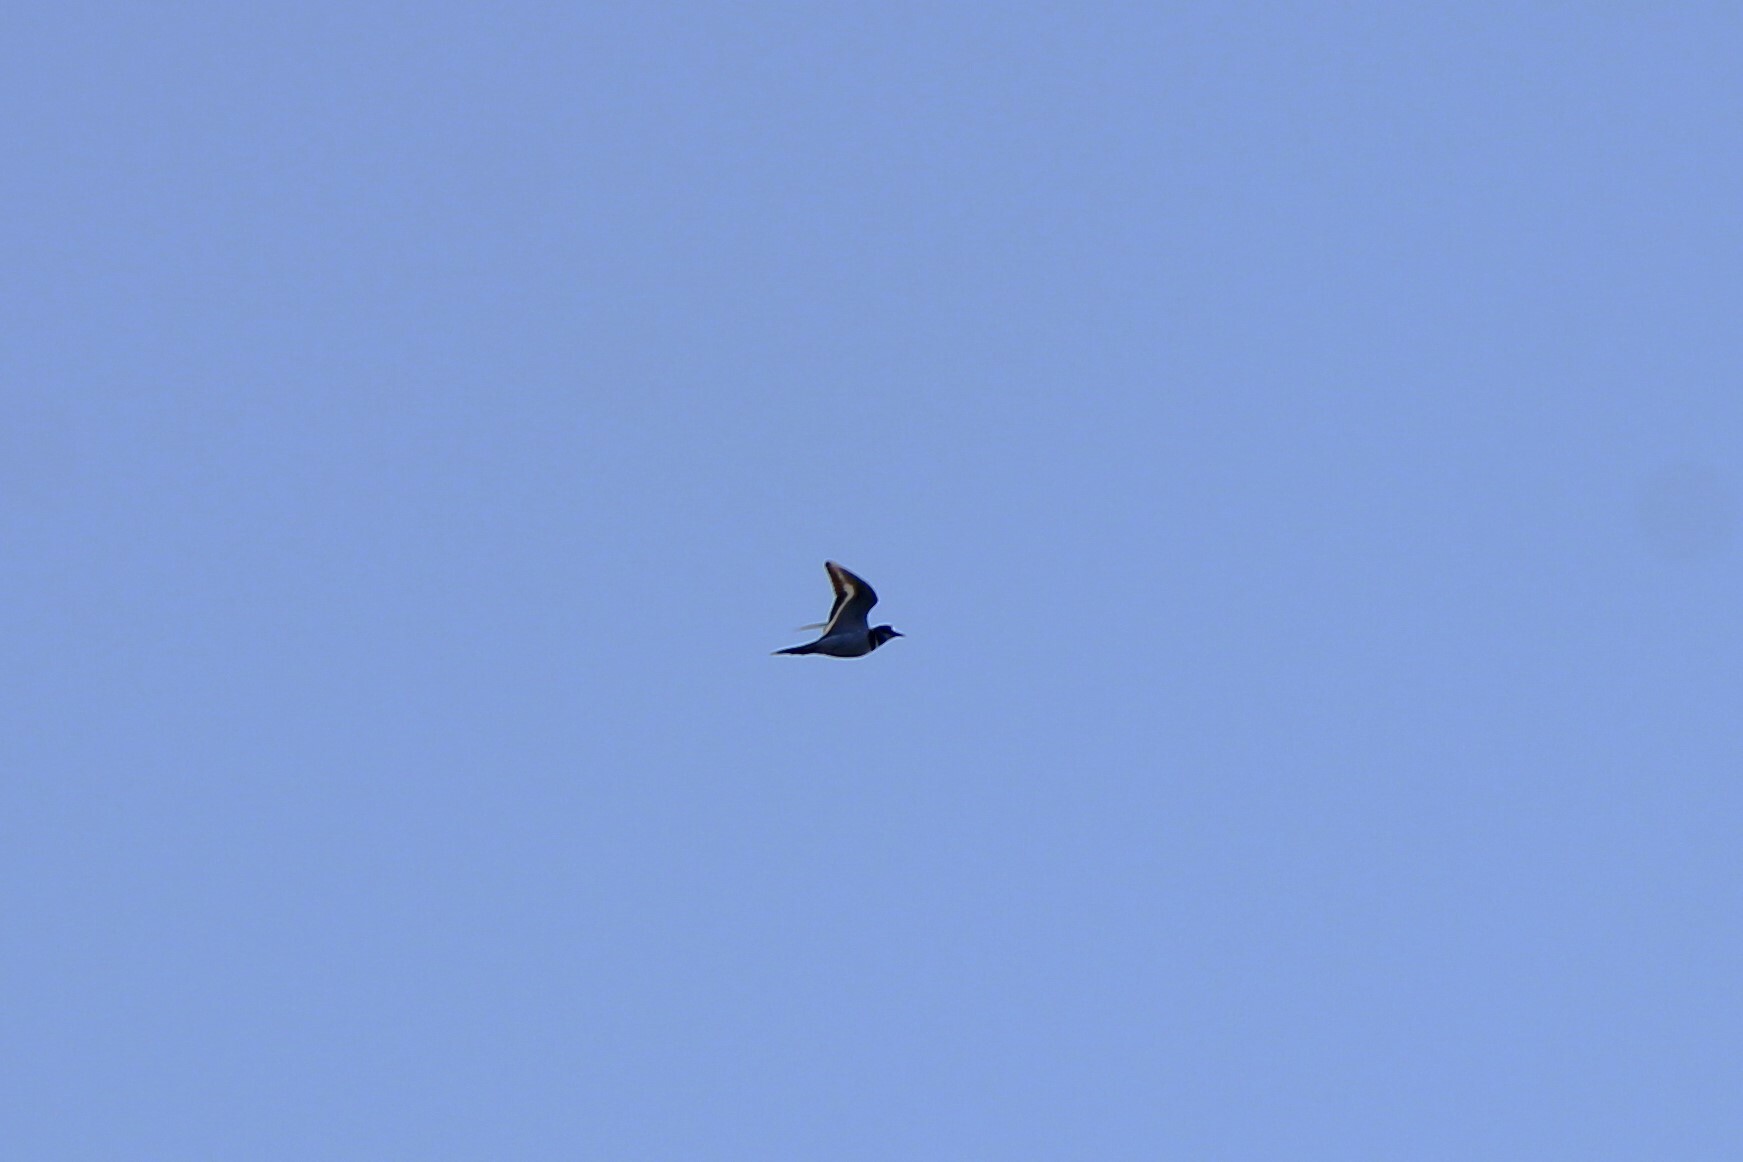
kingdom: Animalia
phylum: Chordata
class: Aves
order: Charadriiformes
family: Charadriidae
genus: Charadrius
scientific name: Charadrius vociferus
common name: Killdeer
